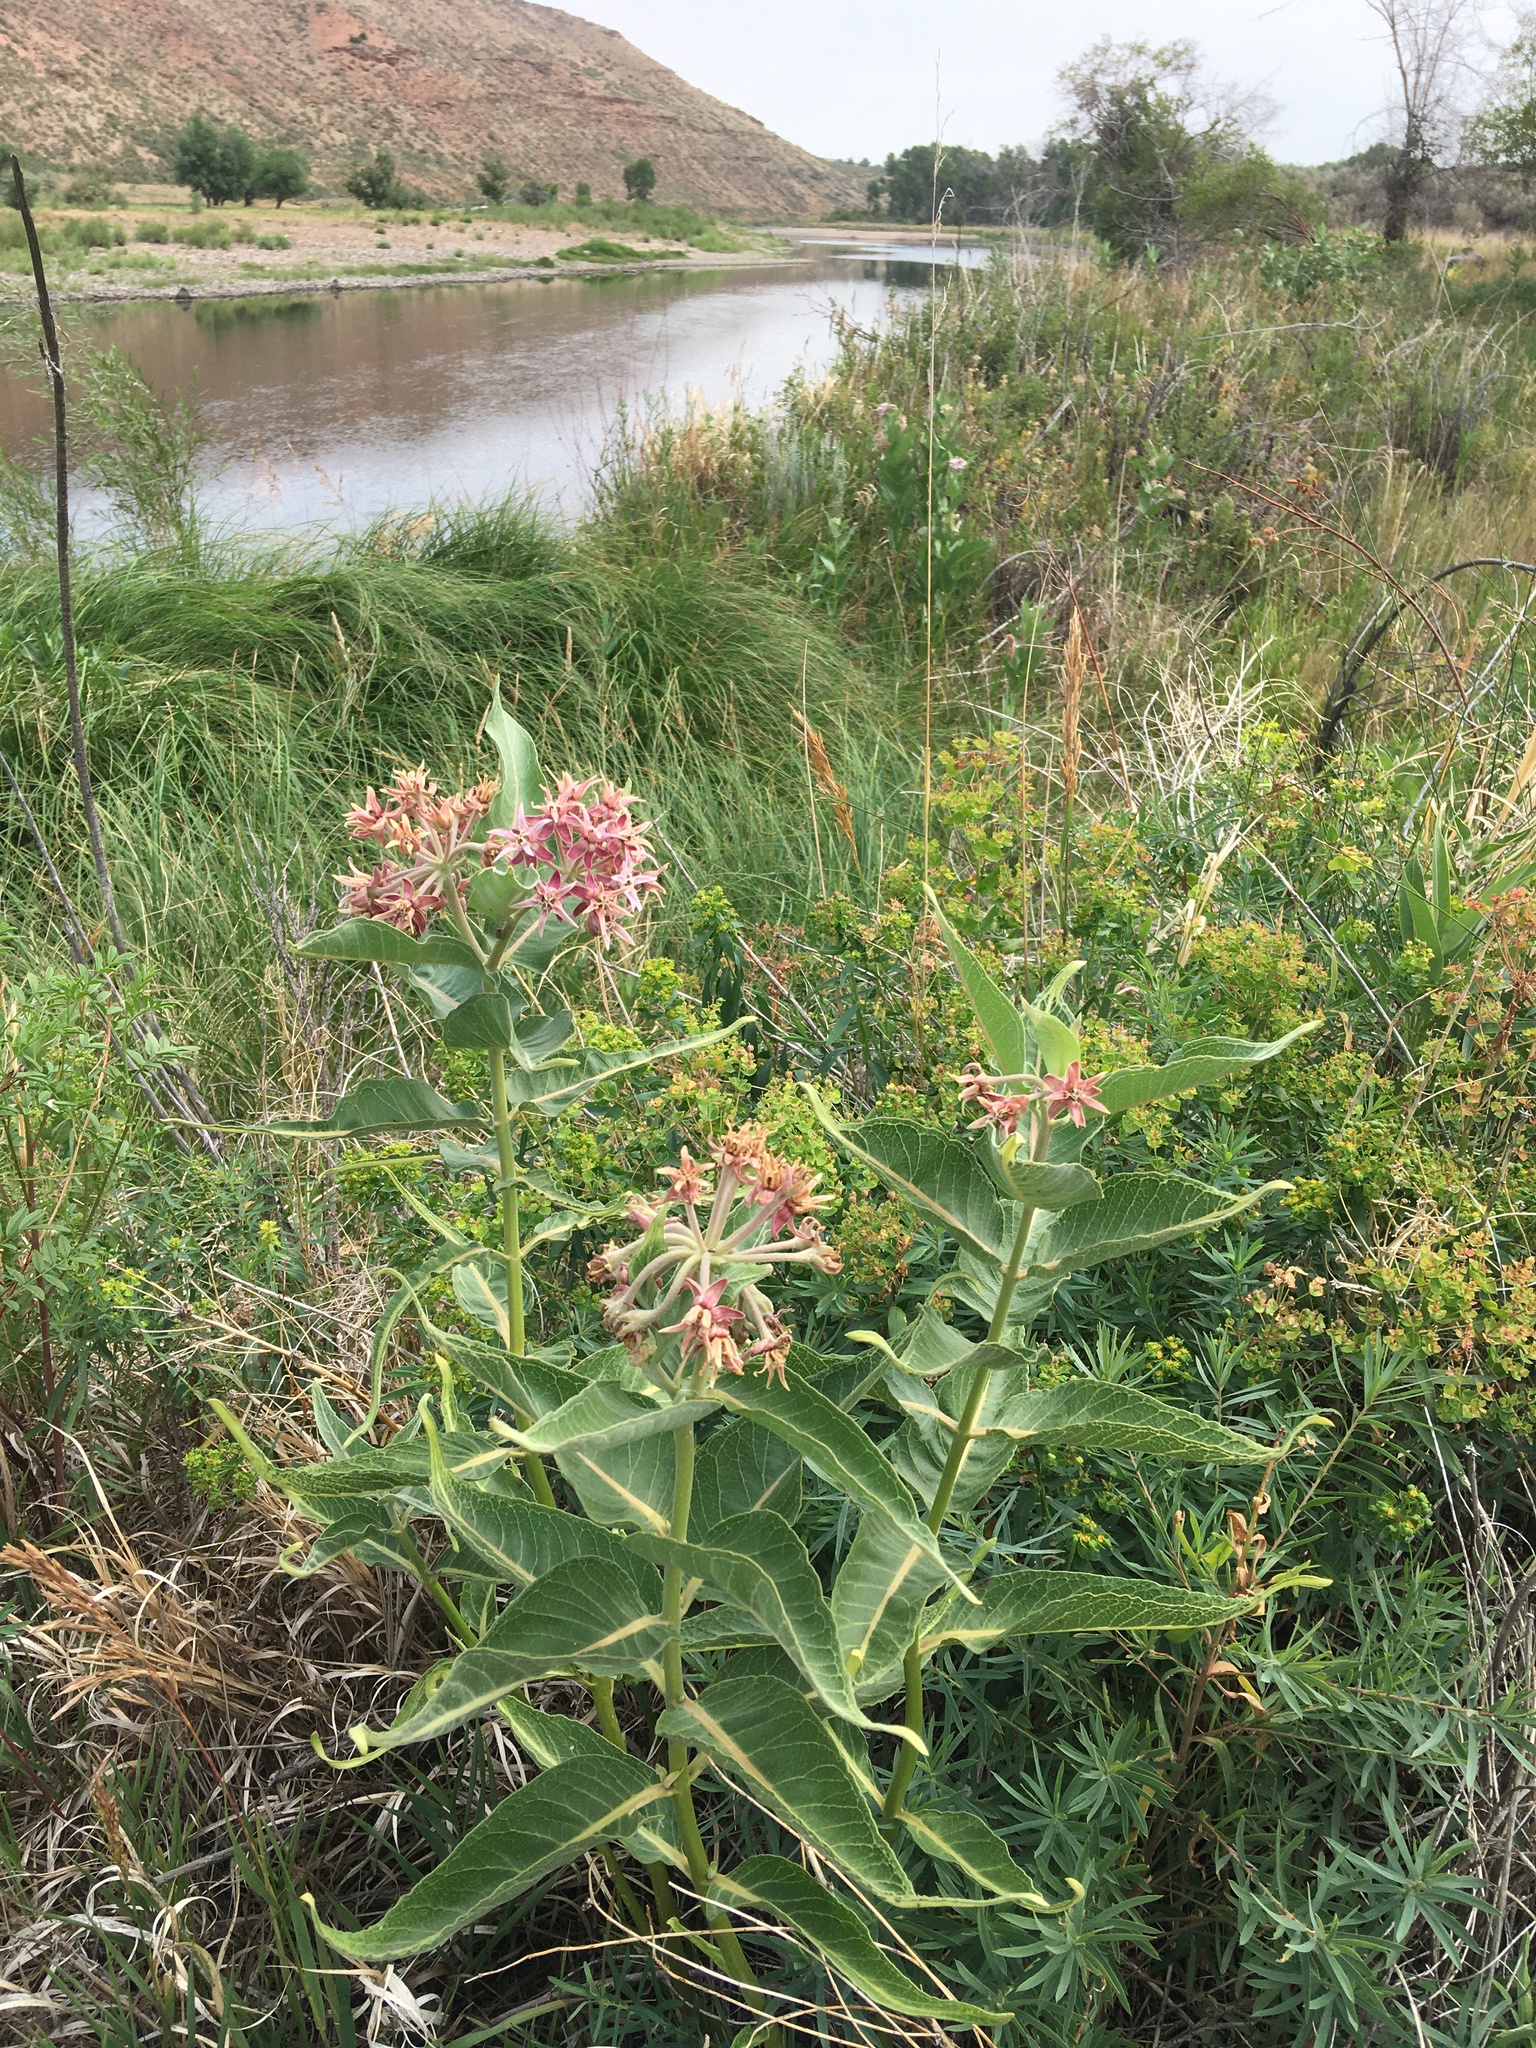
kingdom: Plantae
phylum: Tracheophyta
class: Magnoliopsida
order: Gentianales
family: Apocynaceae
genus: Asclepias
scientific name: Asclepias speciosa
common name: Showy milkweed
